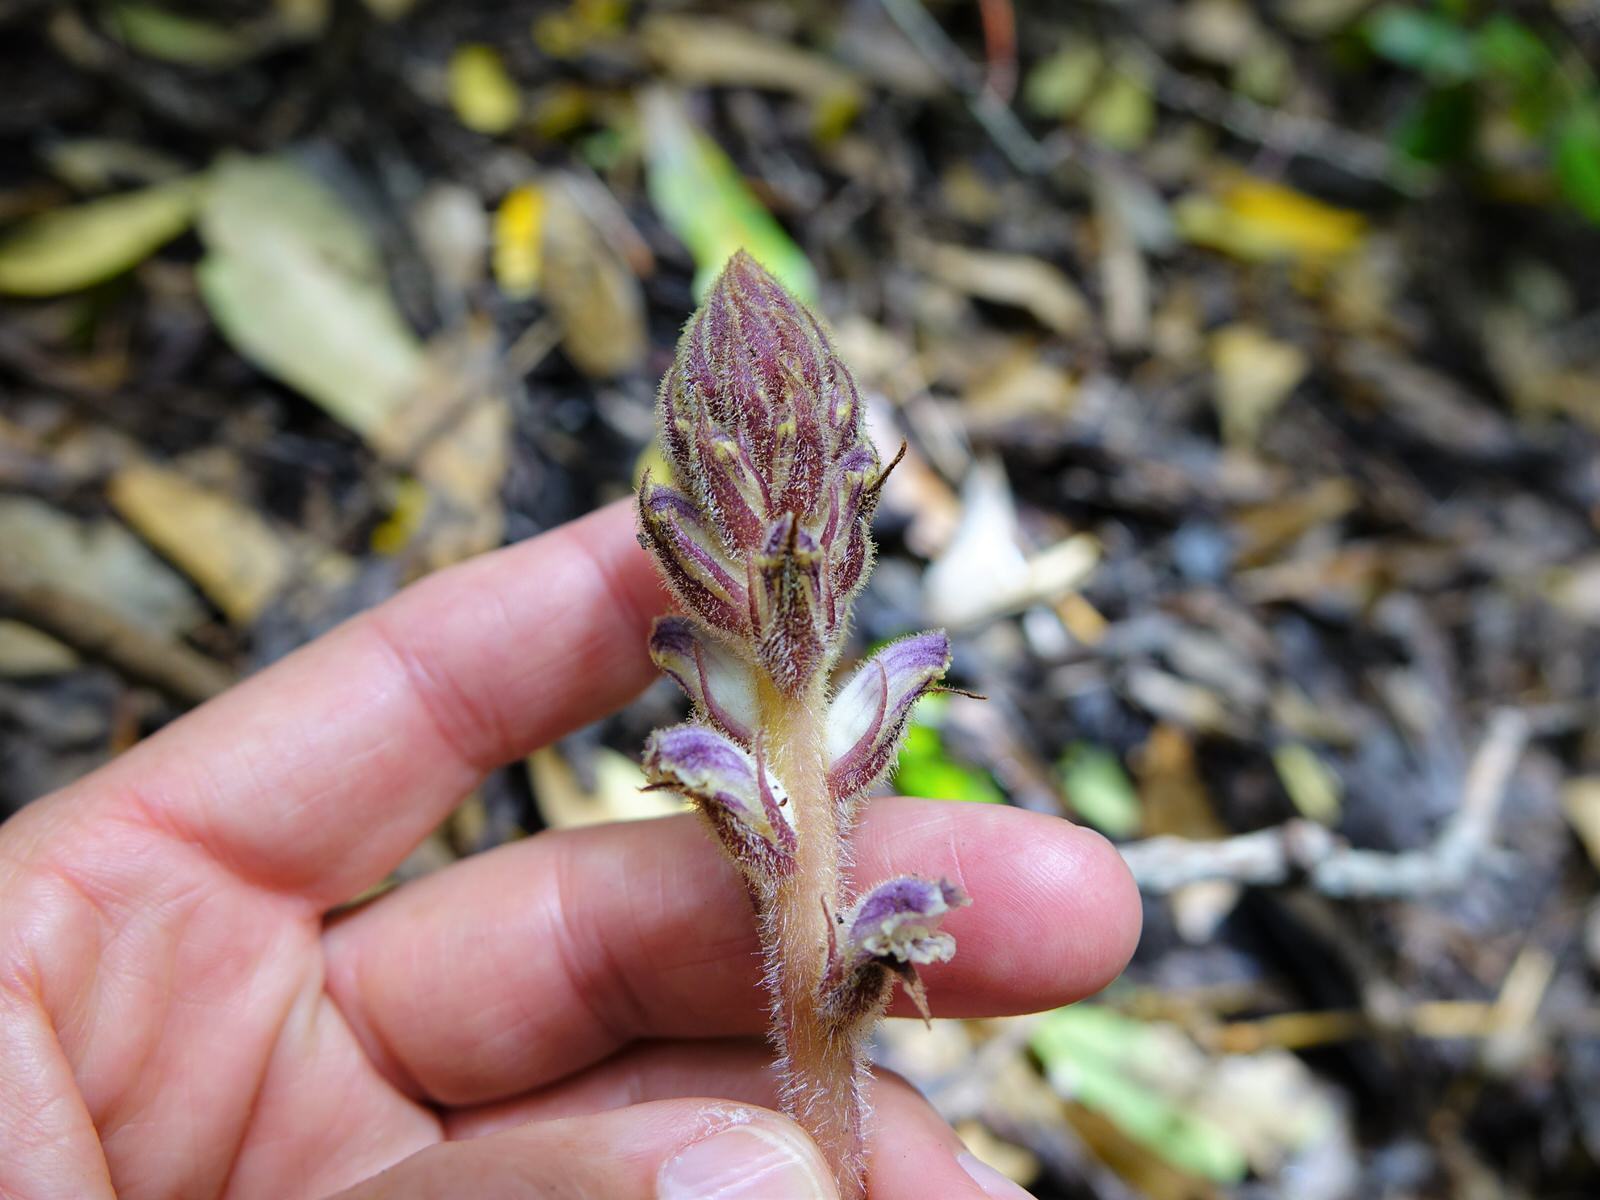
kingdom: Plantae
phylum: Tracheophyta
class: Magnoliopsida
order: Lamiales
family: Orobanchaceae
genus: Orobanche
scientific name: Orobanche minor
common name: Common broomrape
